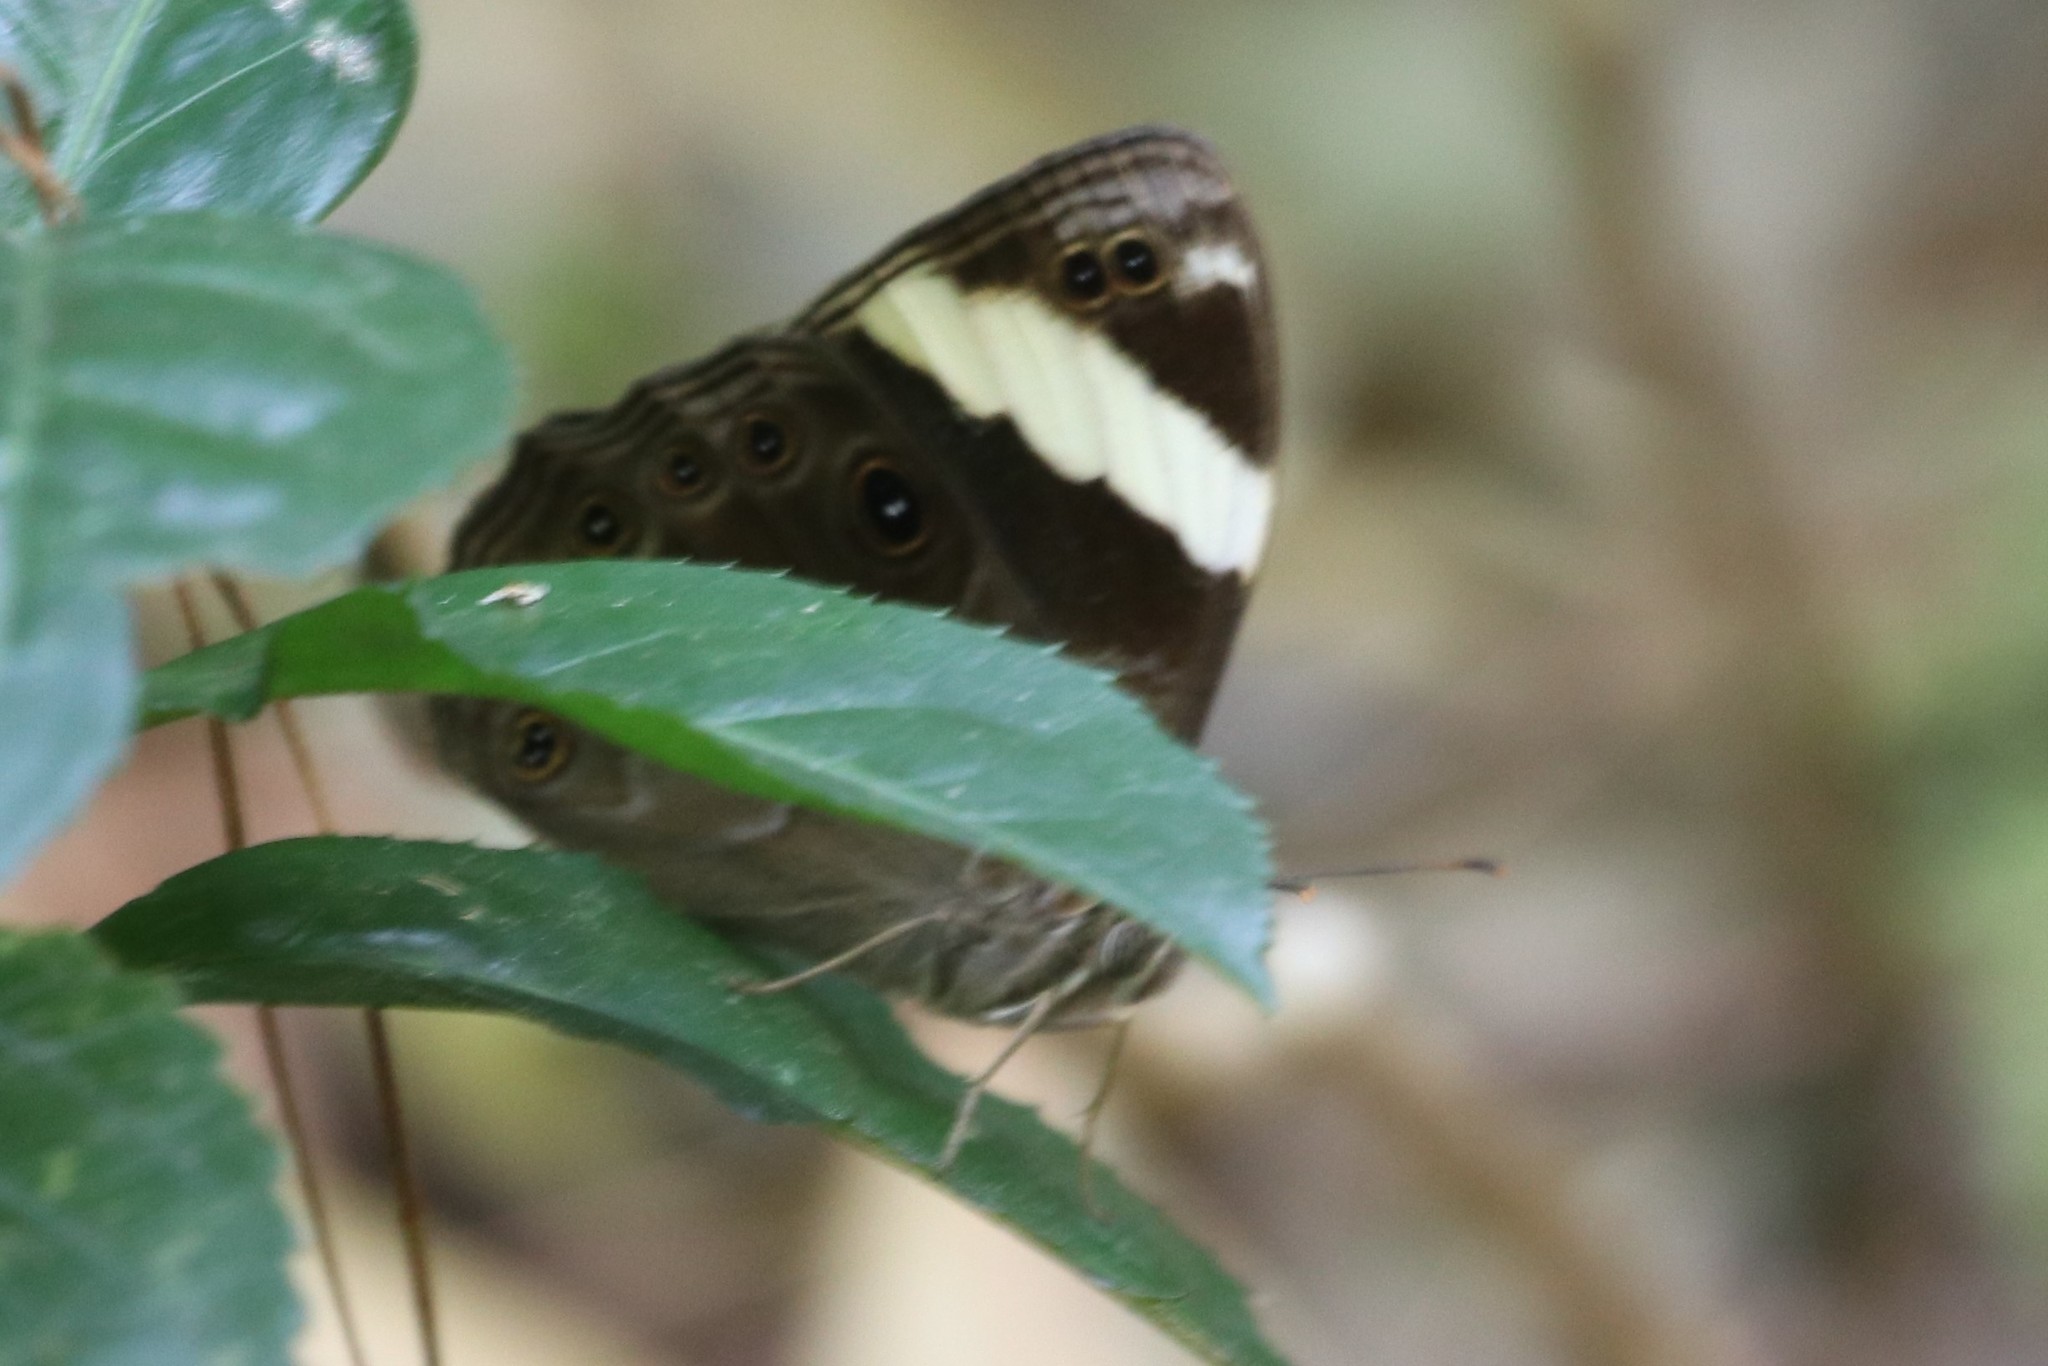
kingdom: Animalia
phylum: Arthropoda
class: Insecta
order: Lepidoptera
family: Nymphalidae
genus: Lethe
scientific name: Lethe verma
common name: Straight-banded treebrown
